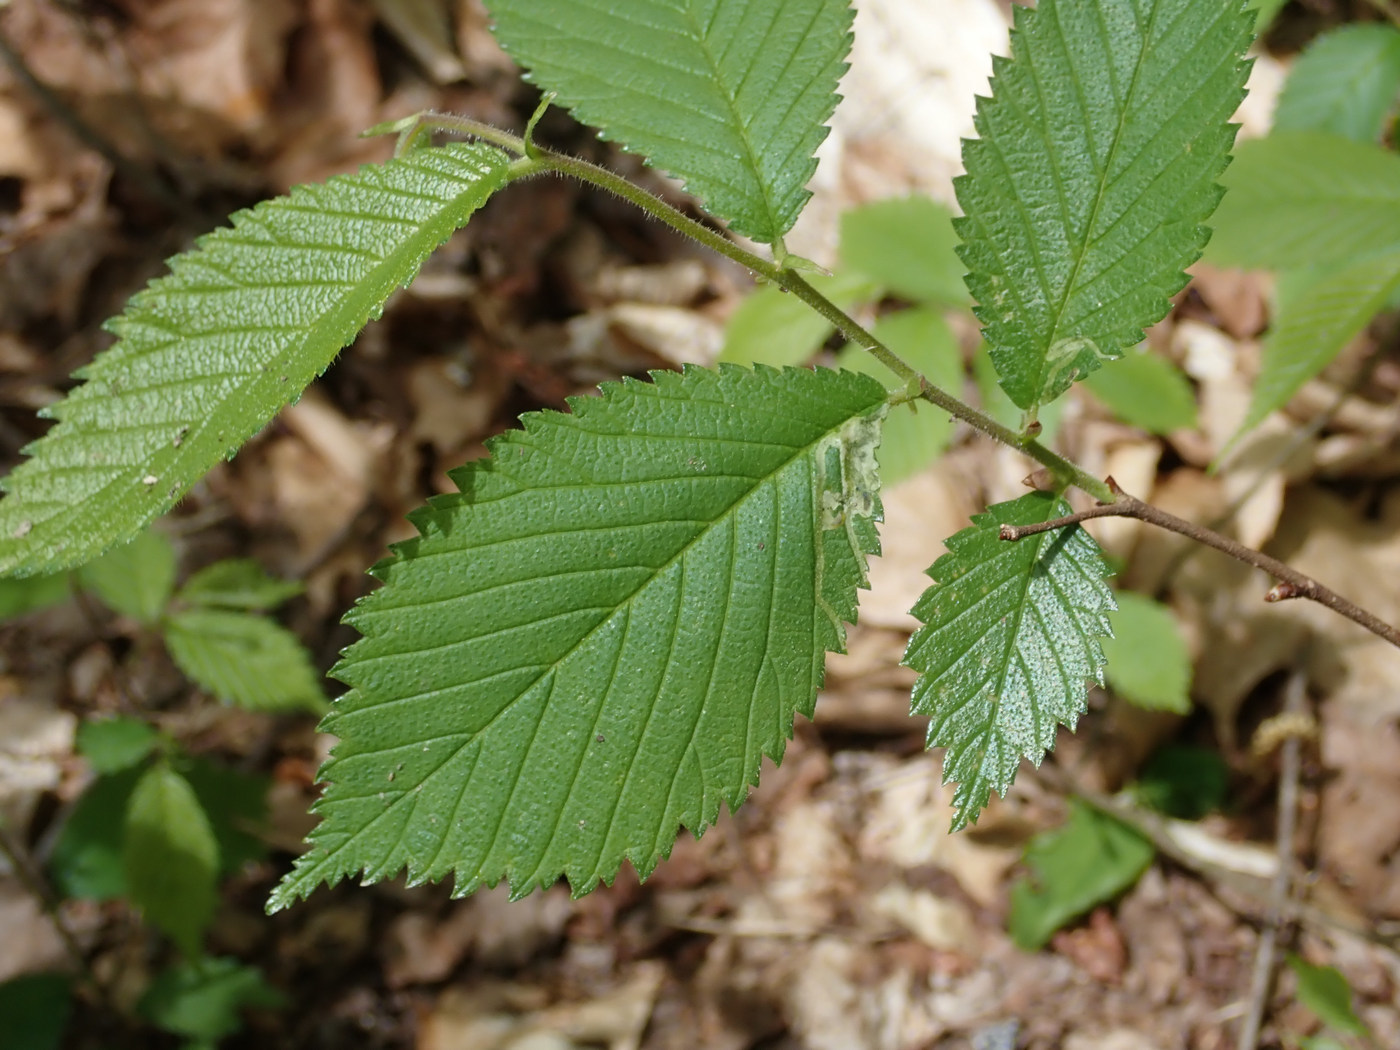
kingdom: Animalia
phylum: Arthropoda
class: Insecta
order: Diptera
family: Agromyzidae
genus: Agromyza
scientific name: Agromyza aristata
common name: Elm agromyzid leafminer
